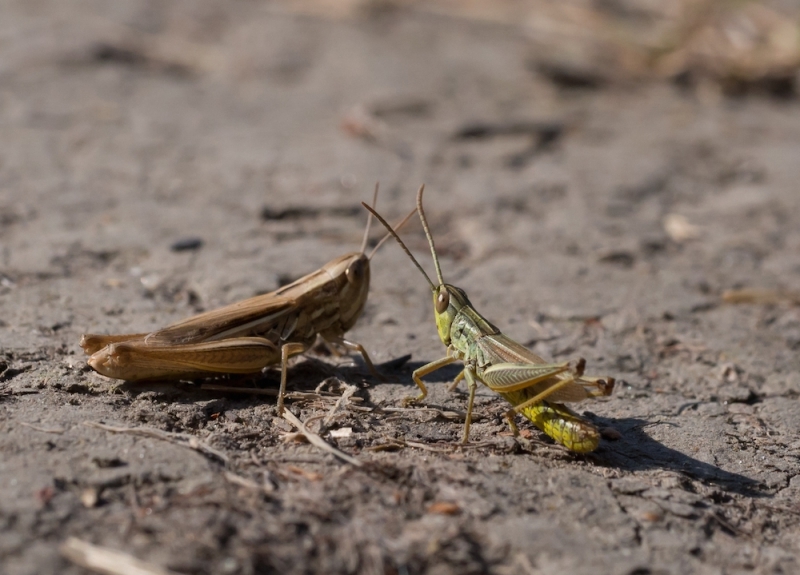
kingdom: Animalia
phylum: Arthropoda
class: Insecta
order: Orthoptera
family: Acrididae
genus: Euchorthippus
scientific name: Euchorthippus declivus
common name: Common straw grasshopper
